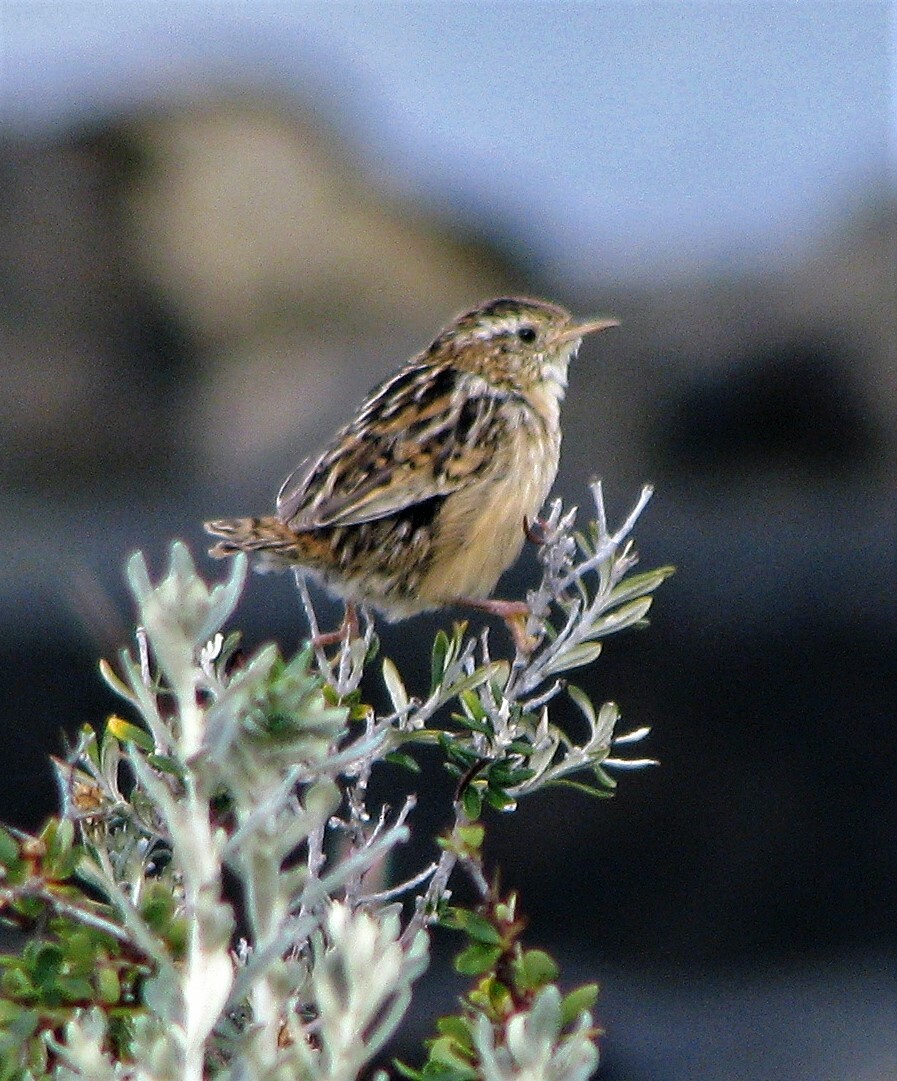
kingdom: Animalia
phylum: Chordata
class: Aves
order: Passeriformes
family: Troglodytidae
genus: Cistothorus
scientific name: Cistothorus platensis
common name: Sedge wren
